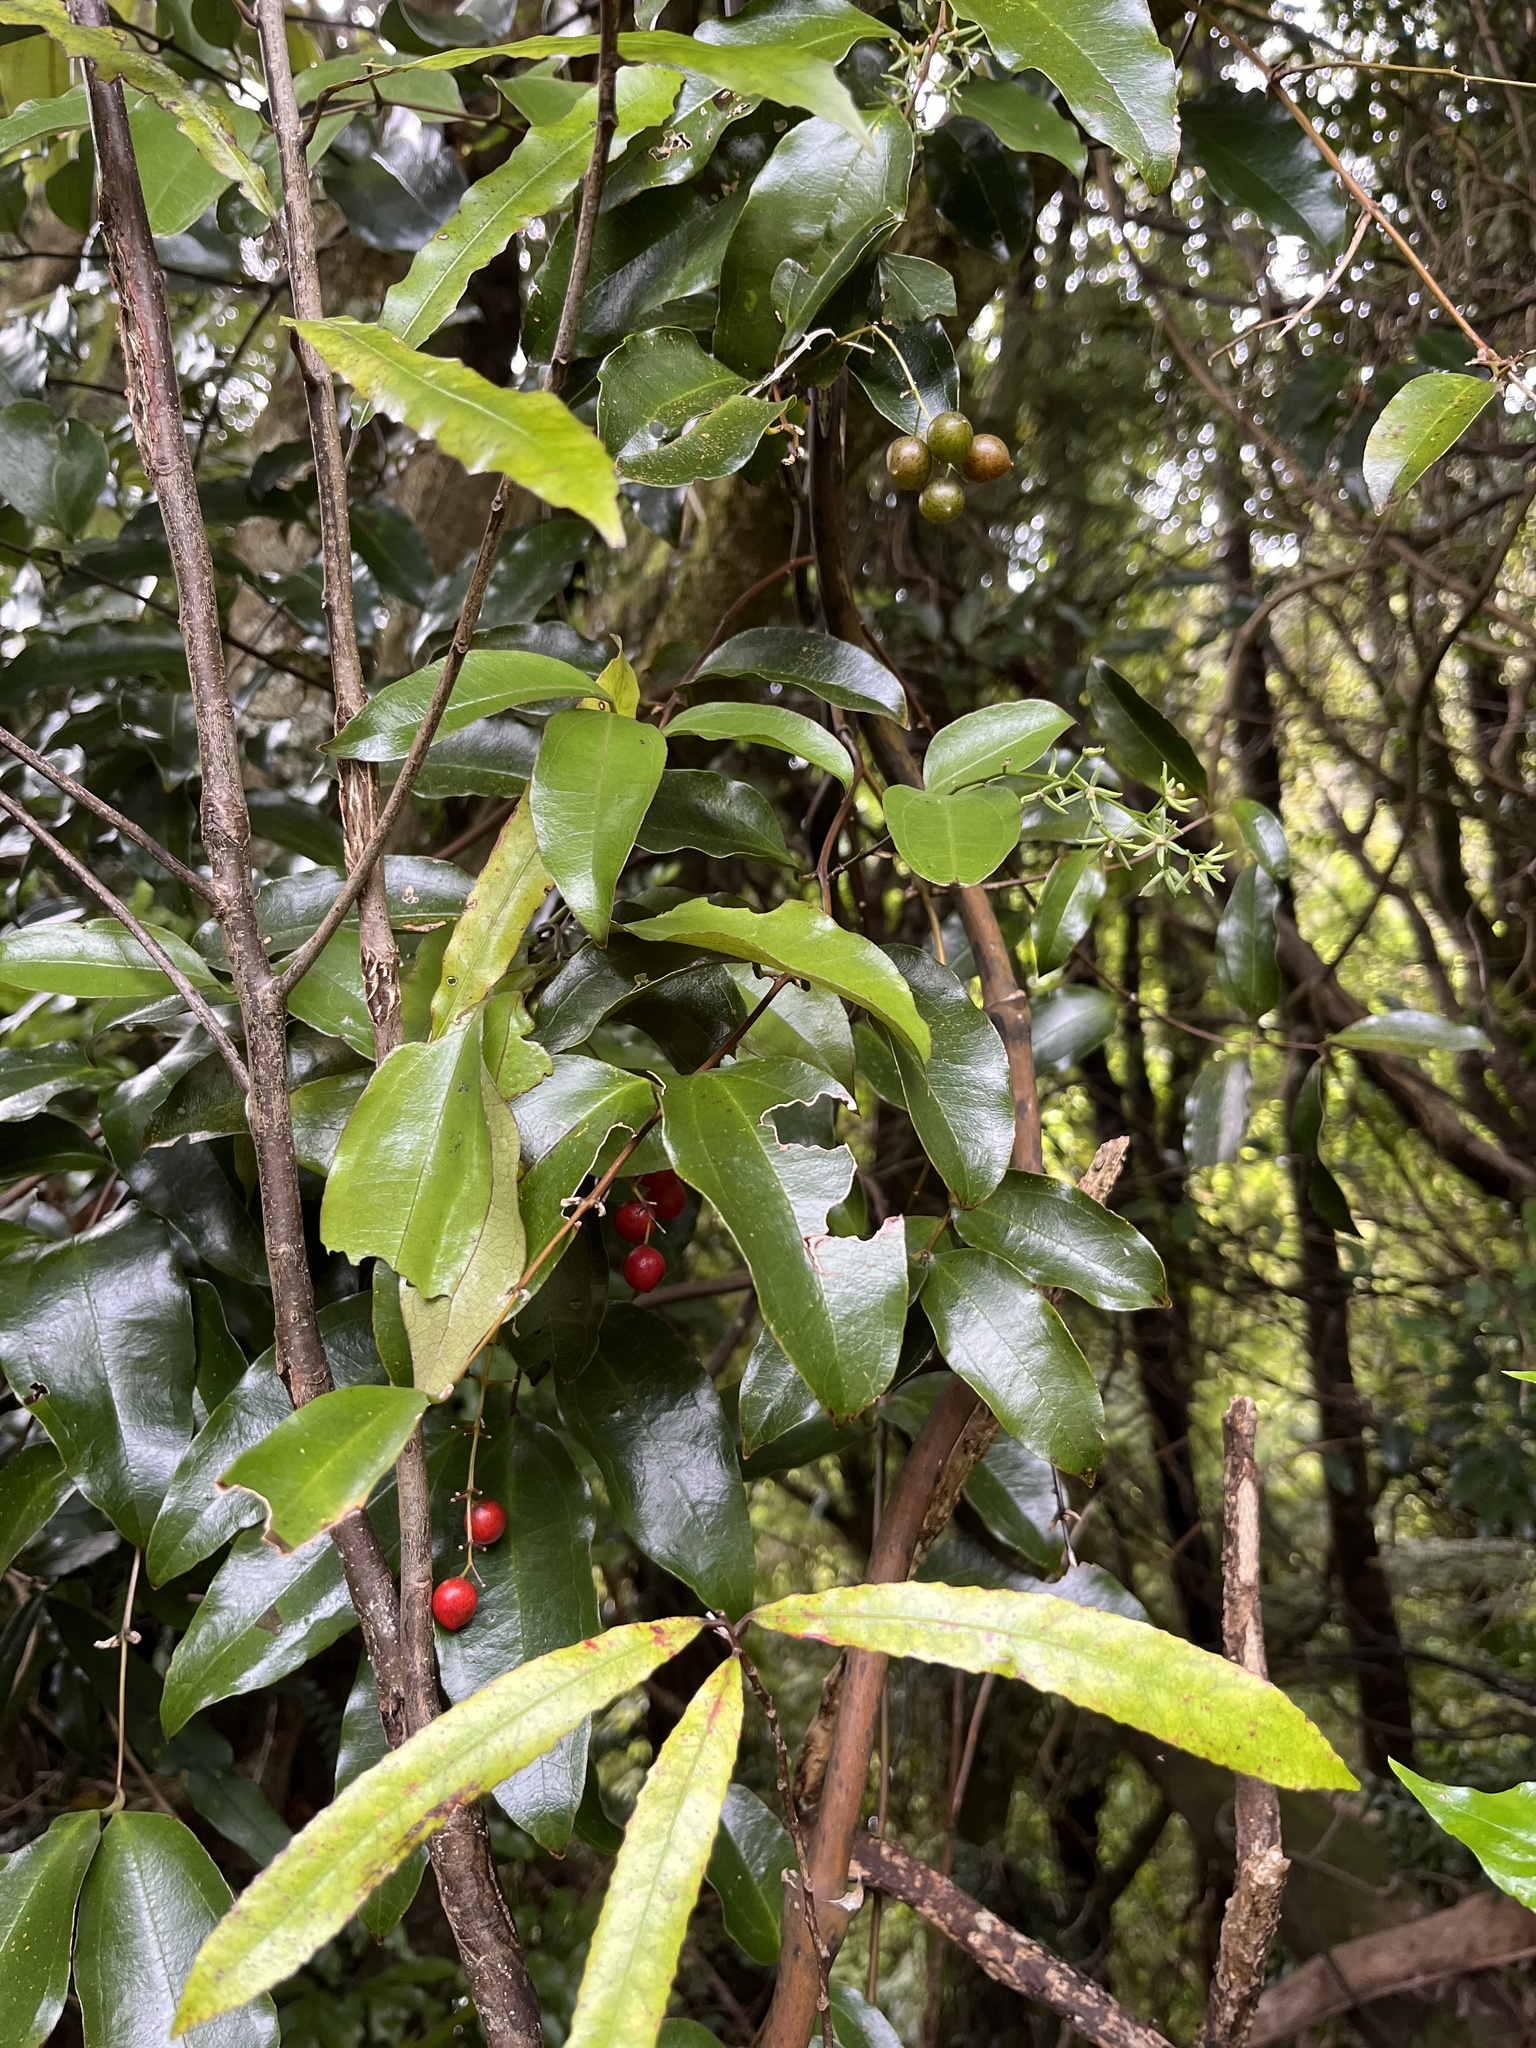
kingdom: Plantae
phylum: Tracheophyta
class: Liliopsida
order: Liliales
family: Ripogonaceae
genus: Ripogonum
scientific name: Ripogonum scandens
